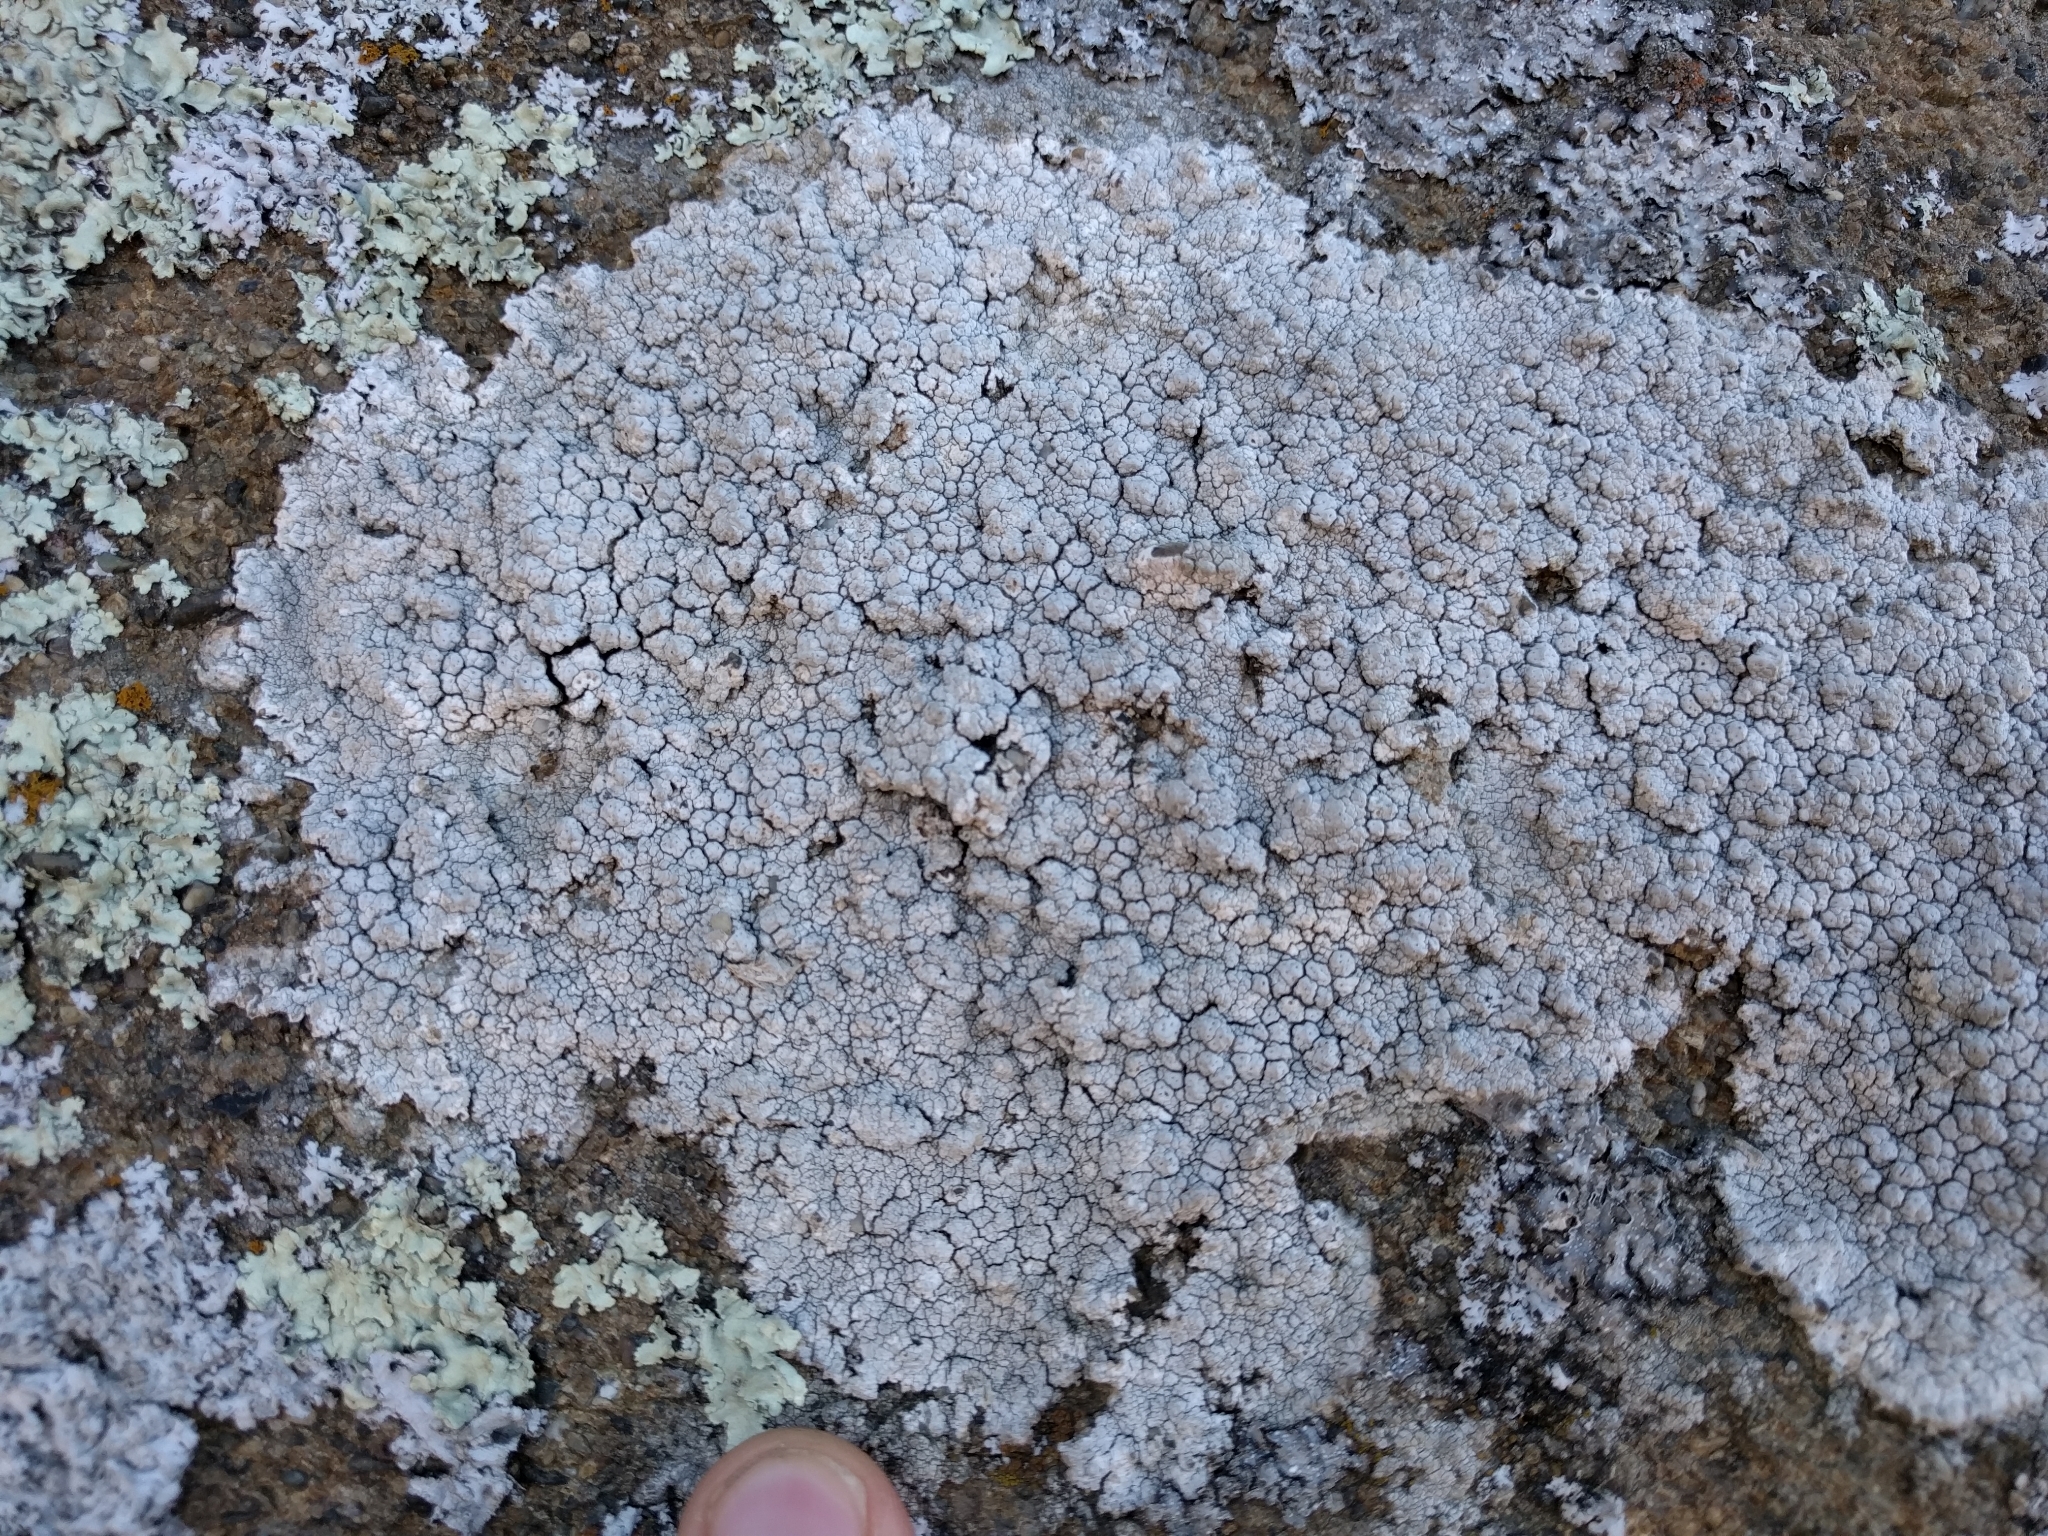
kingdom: Fungi
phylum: Ascomycota
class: Lecanoromycetes
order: Pertusariales
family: Pertusariaceae
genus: Pertusaria
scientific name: Pertusaria californica
